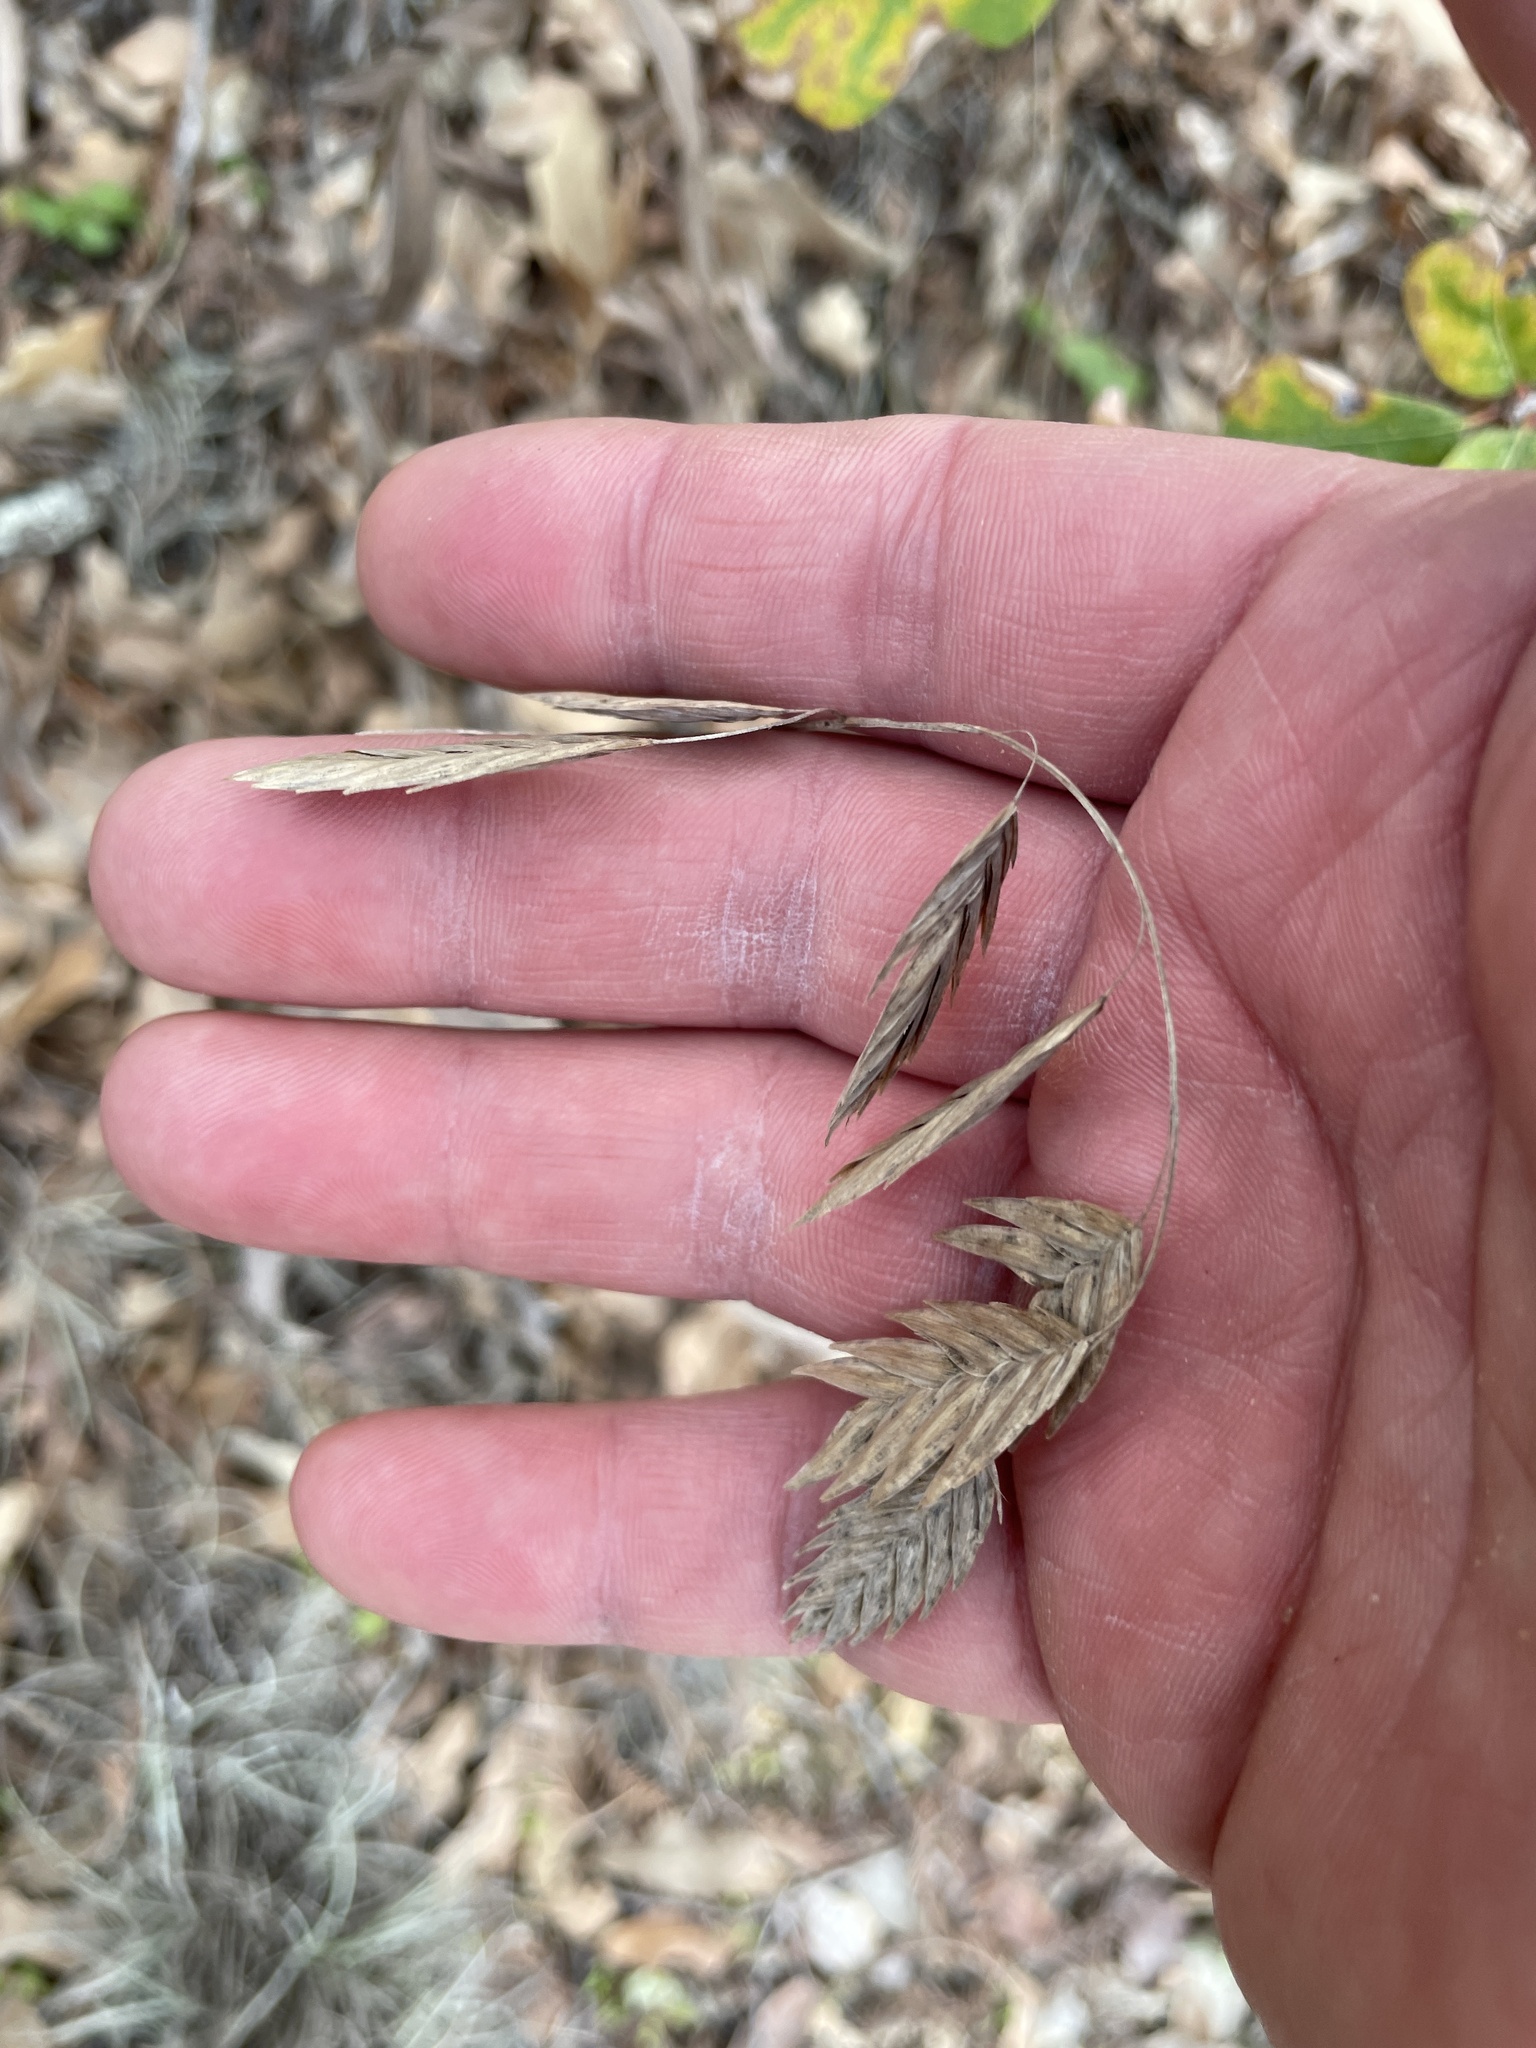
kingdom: Plantae
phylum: Tracheophyta
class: Liliopsida
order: Poales
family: Poaceae
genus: Chasmanthium
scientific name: Chasmanthium latifolium
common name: Broad-leaved chasmanthium
